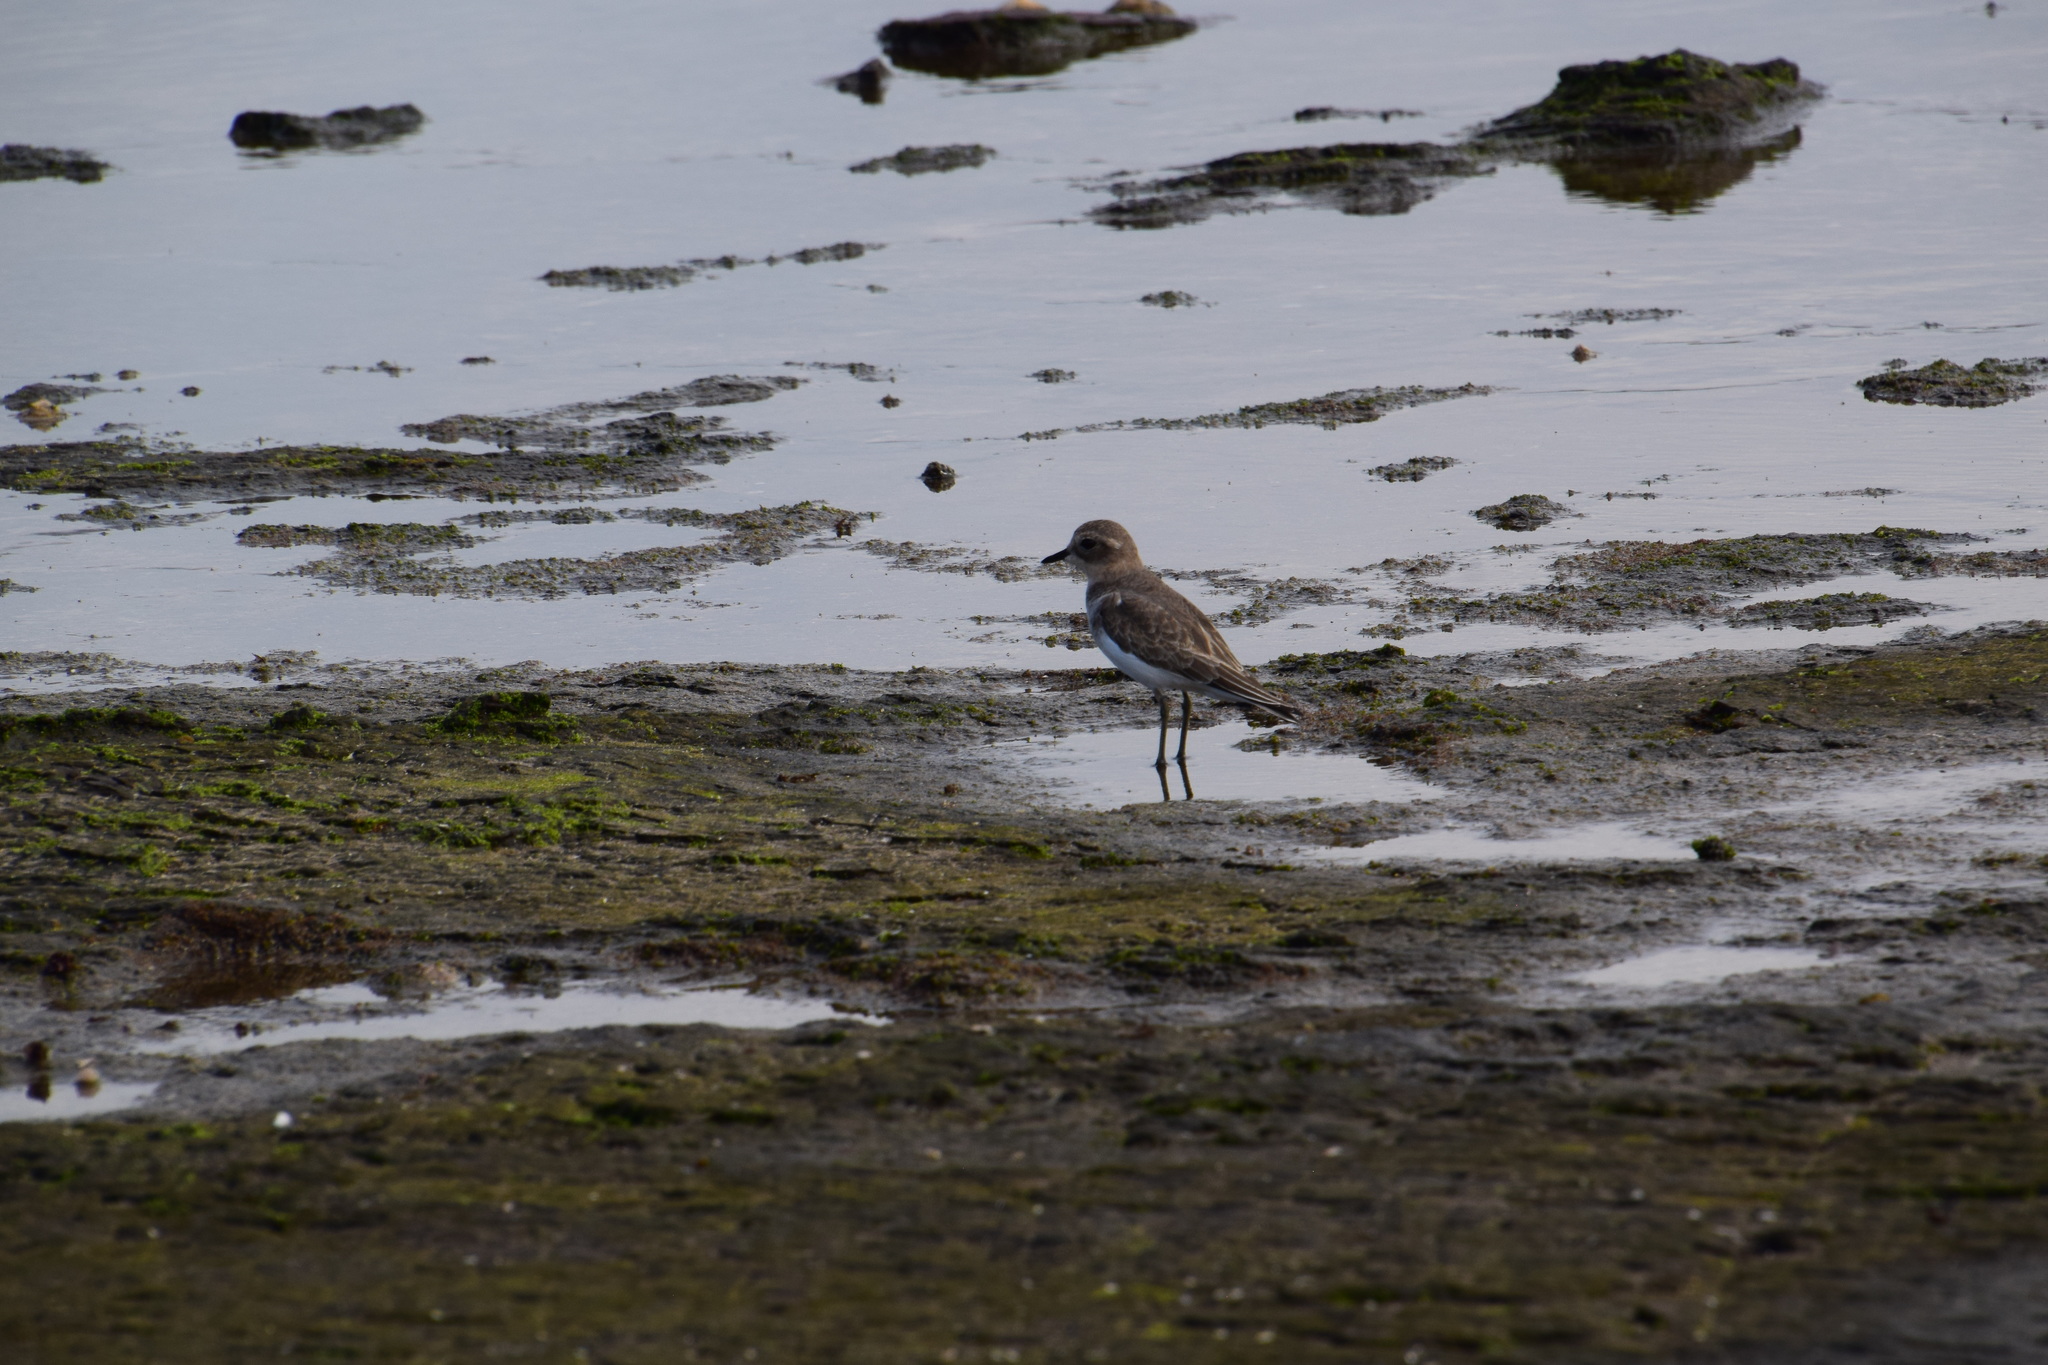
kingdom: Animalia
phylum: Chordata
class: Aves
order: Charadriiformes
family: Charadriidae
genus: Anarhynchus
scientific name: Anarhynchus
